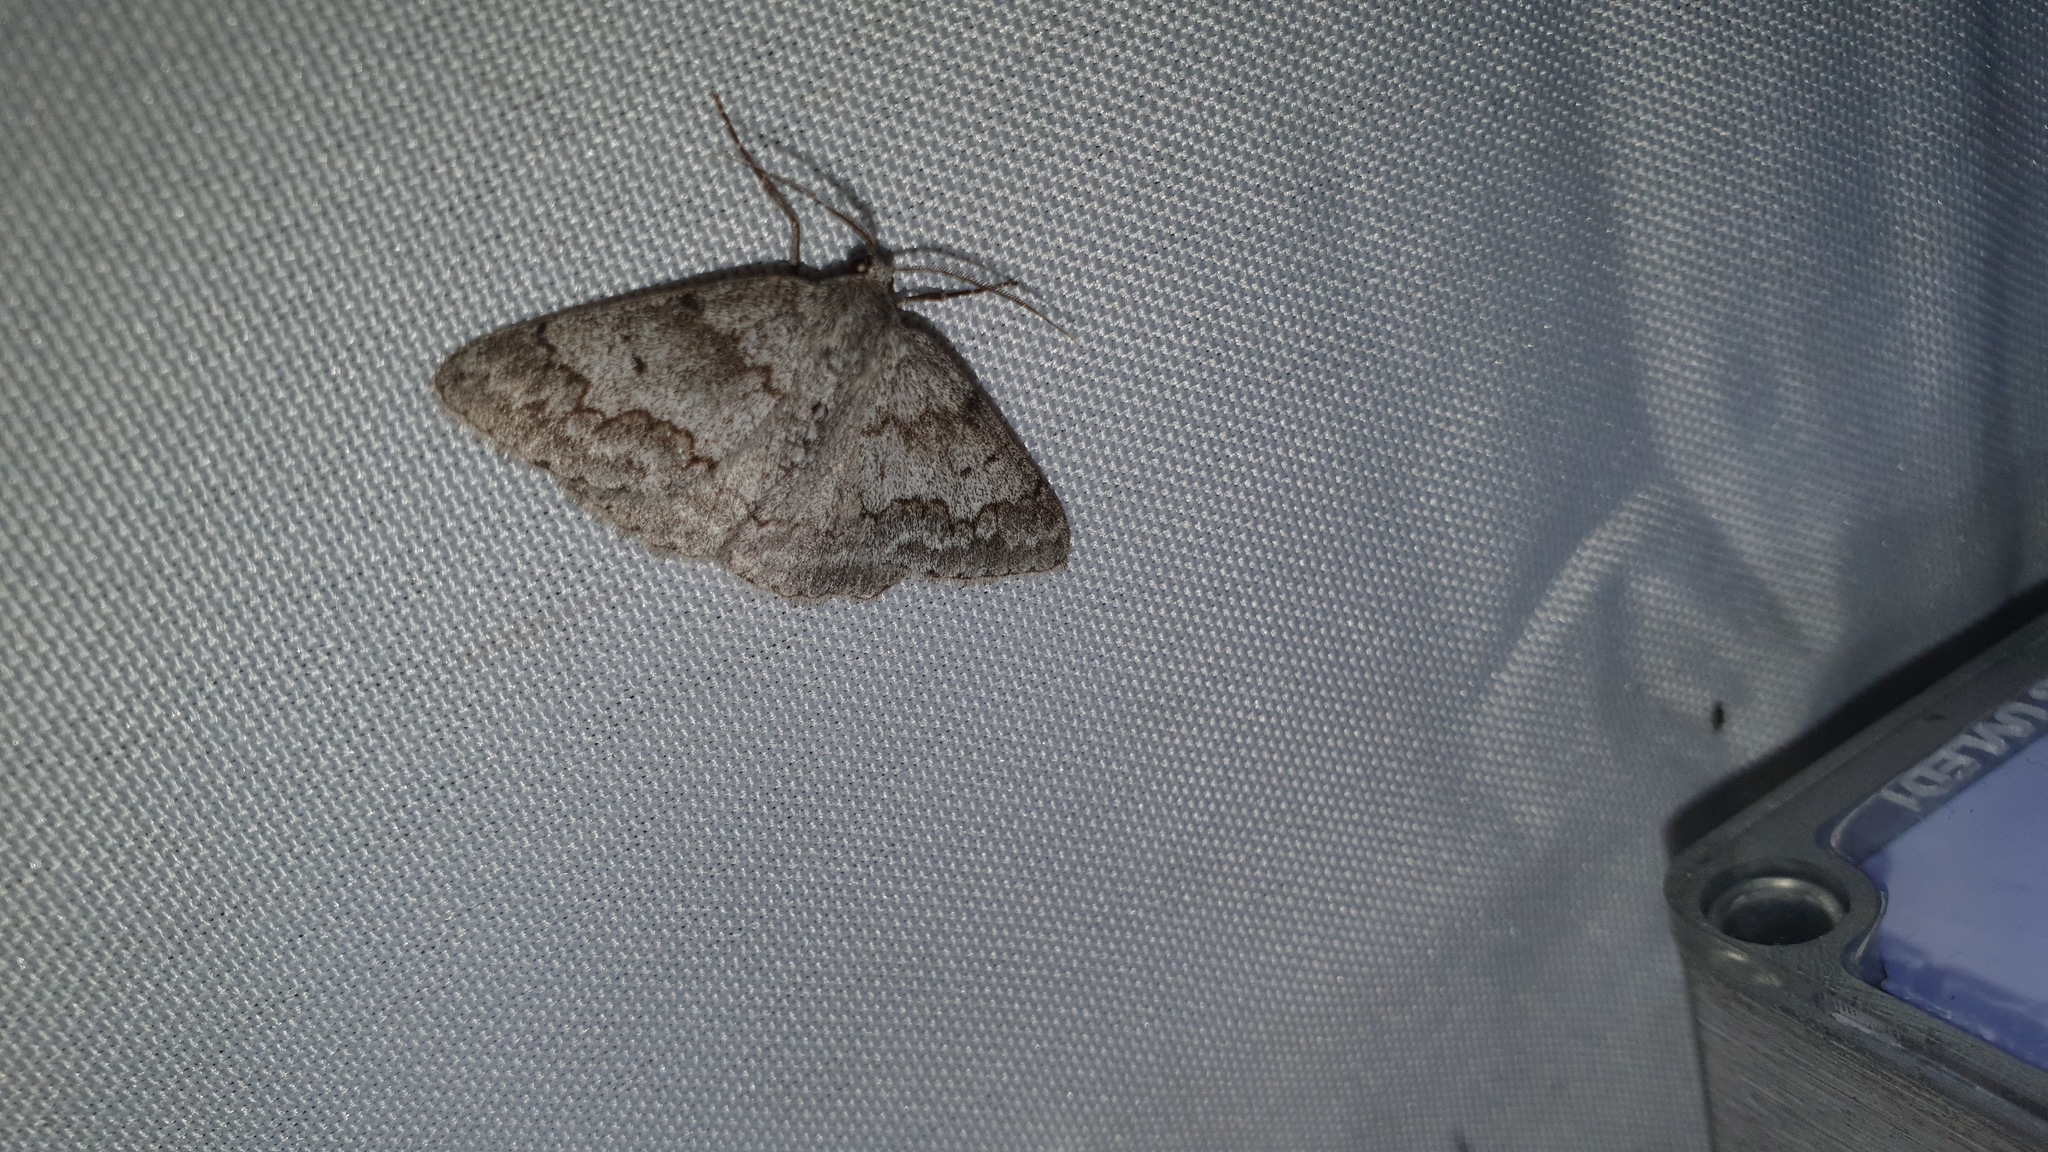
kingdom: Animalia
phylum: Arthropoda
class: Insecta
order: Lepidoptera
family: Geometridae
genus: Pseudoterpna
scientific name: Pseudoterpna coronillaria
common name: Jersey emerald
